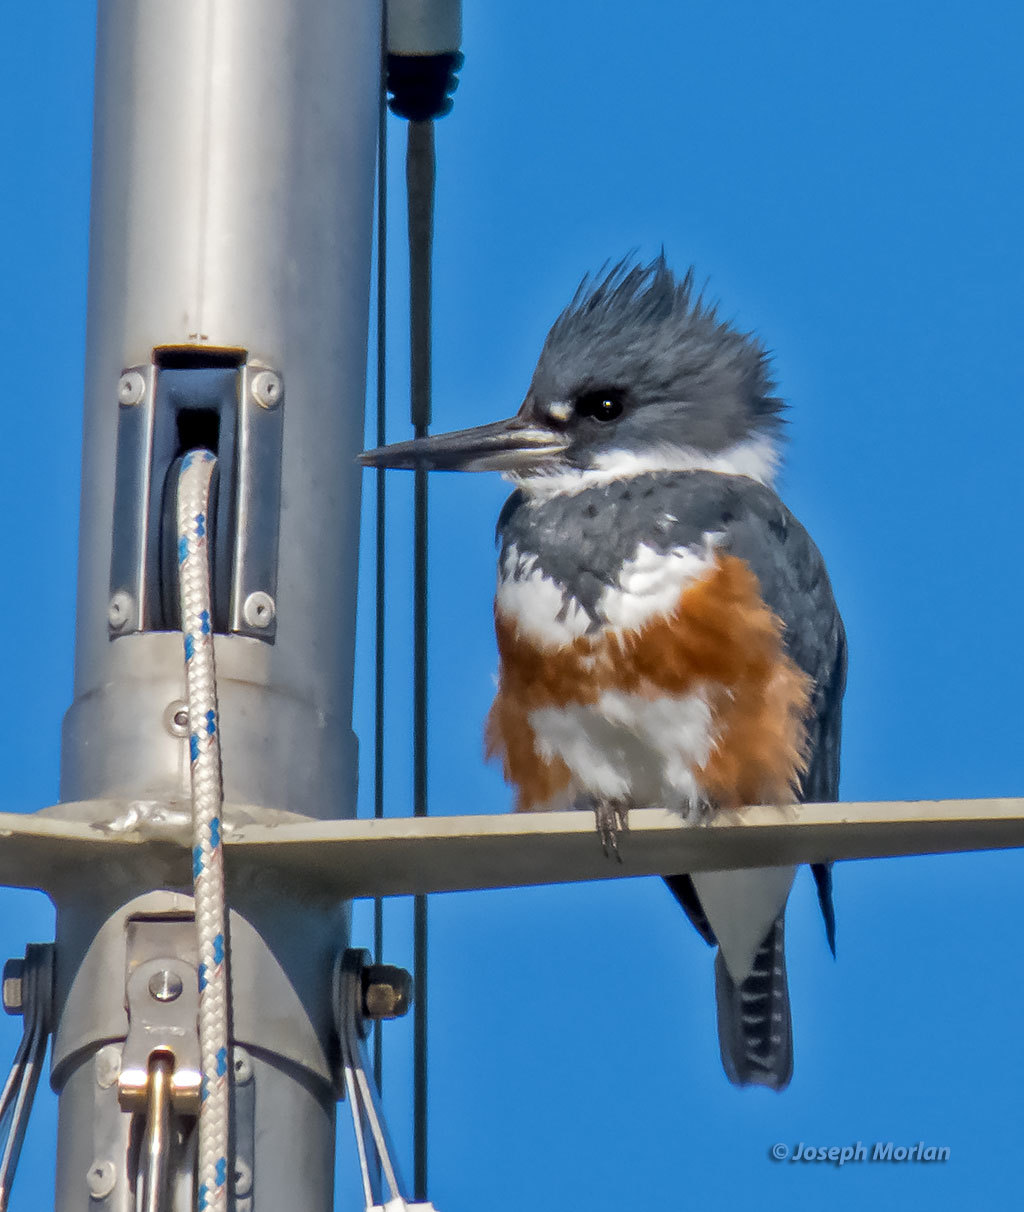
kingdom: Animalia
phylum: Chordata
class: Aves
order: Coraciiformes
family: Alcedinidae
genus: Megaceryle
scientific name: Megaceryle alcyon
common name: Belted kingfisher
